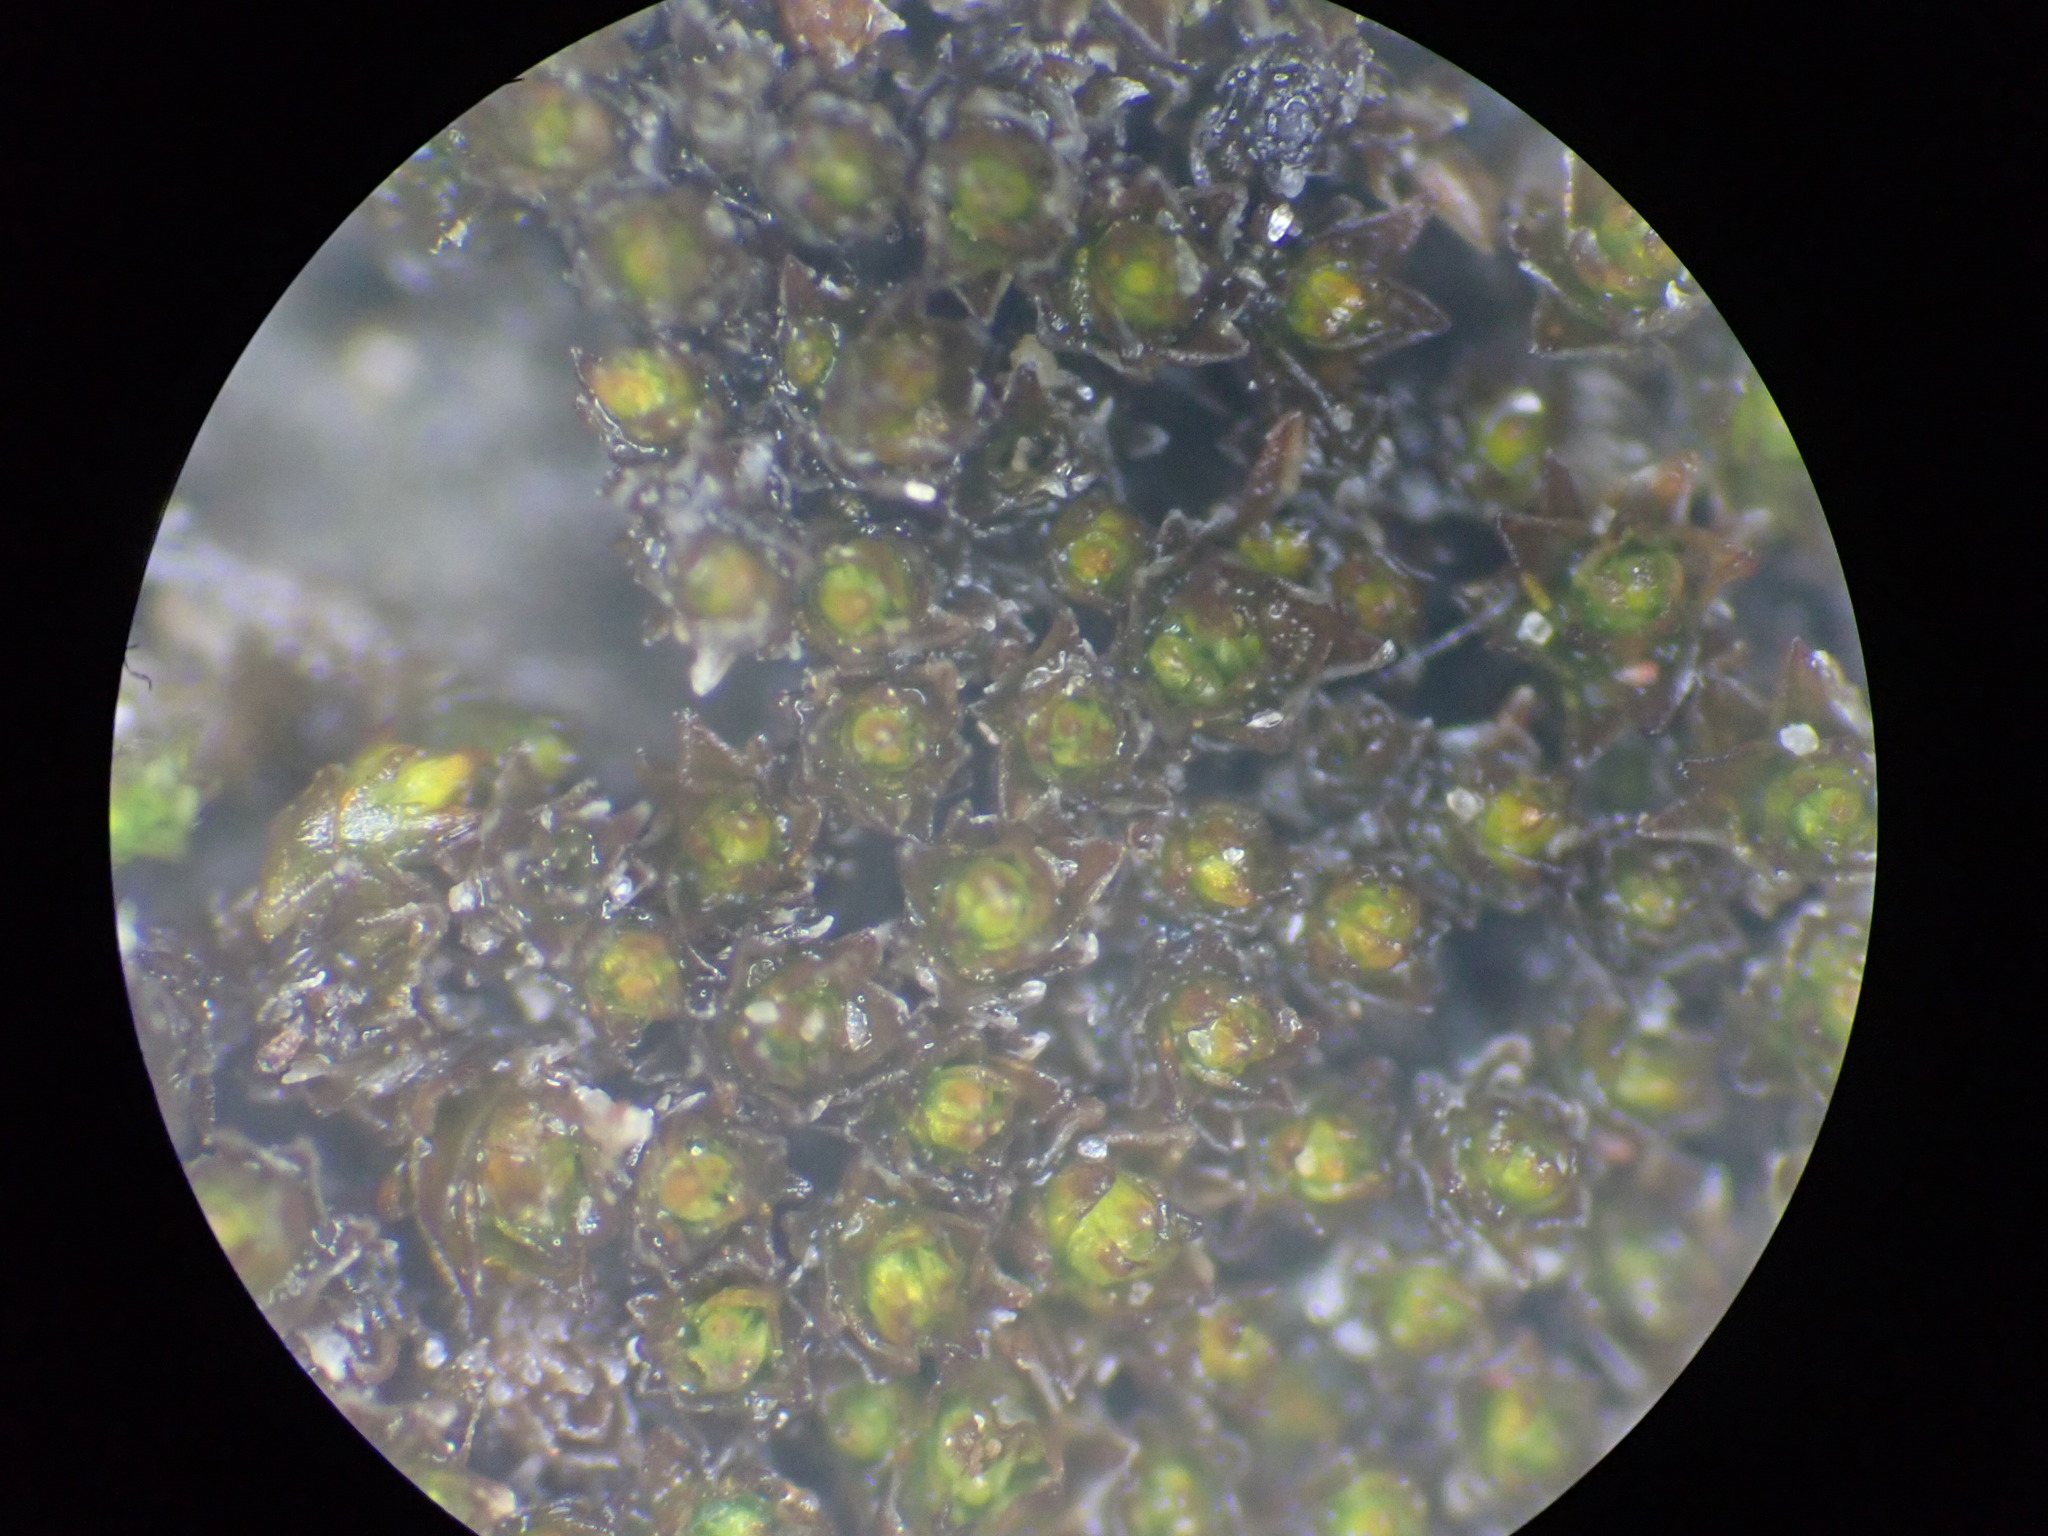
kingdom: Plantae
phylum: Bryophyta
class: Bryopsida
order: Pottiales
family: Pottiaceae
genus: Gertrudiella
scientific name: Gertrudiella nevadensis
